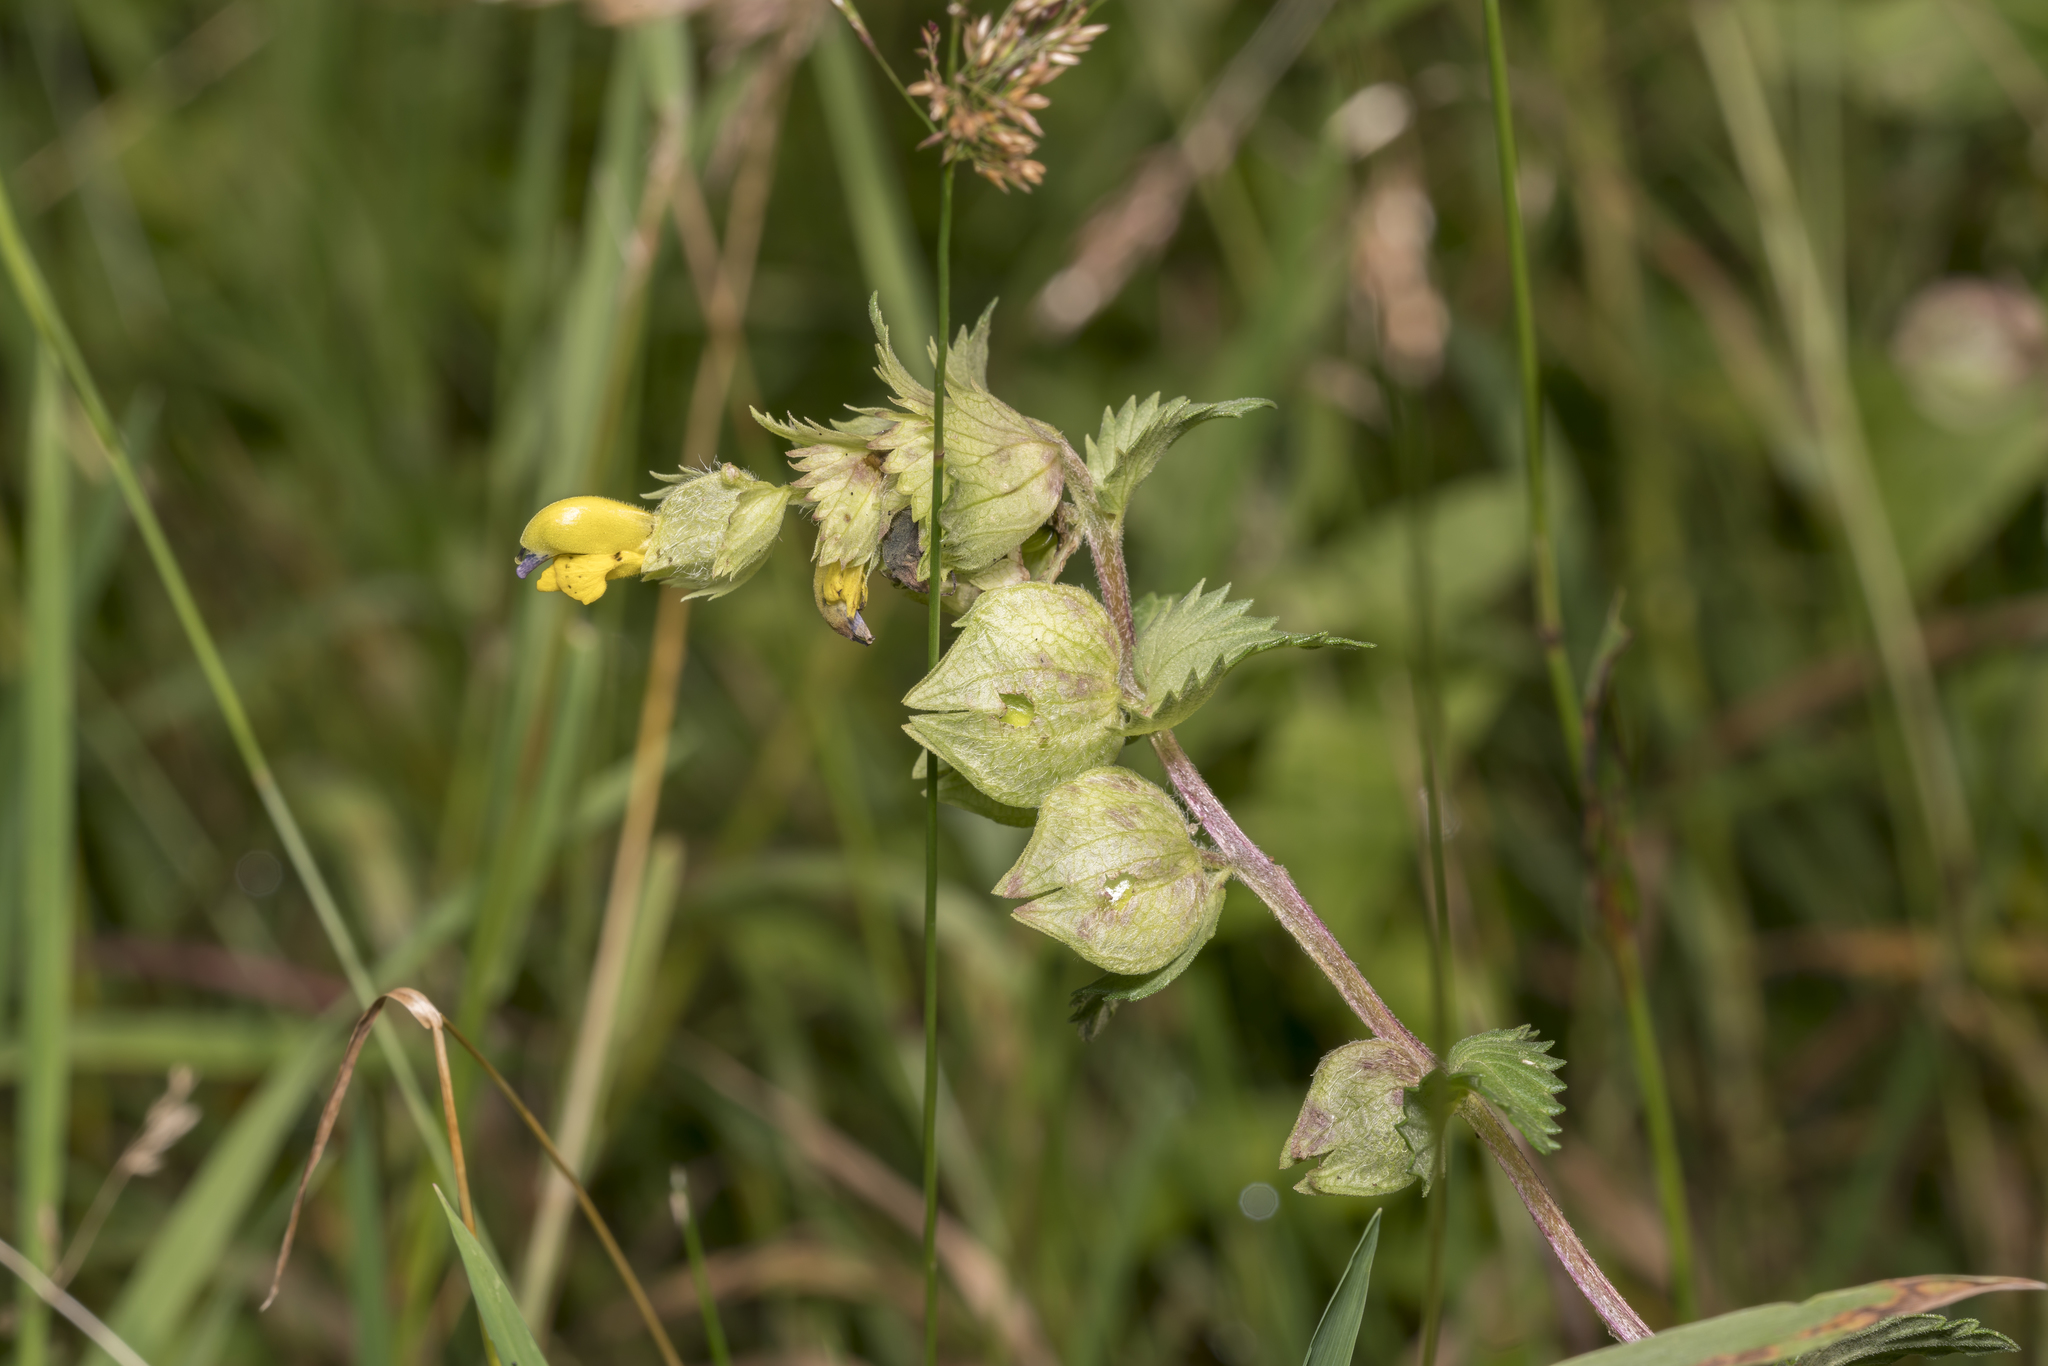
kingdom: Plantae
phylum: Tracheophyta
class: Magnoliopsida
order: Lamiales
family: Orobanchaceae
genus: Rhinanthus
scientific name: Rhinanthus alectorolophus
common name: Greater yellow-rattle
